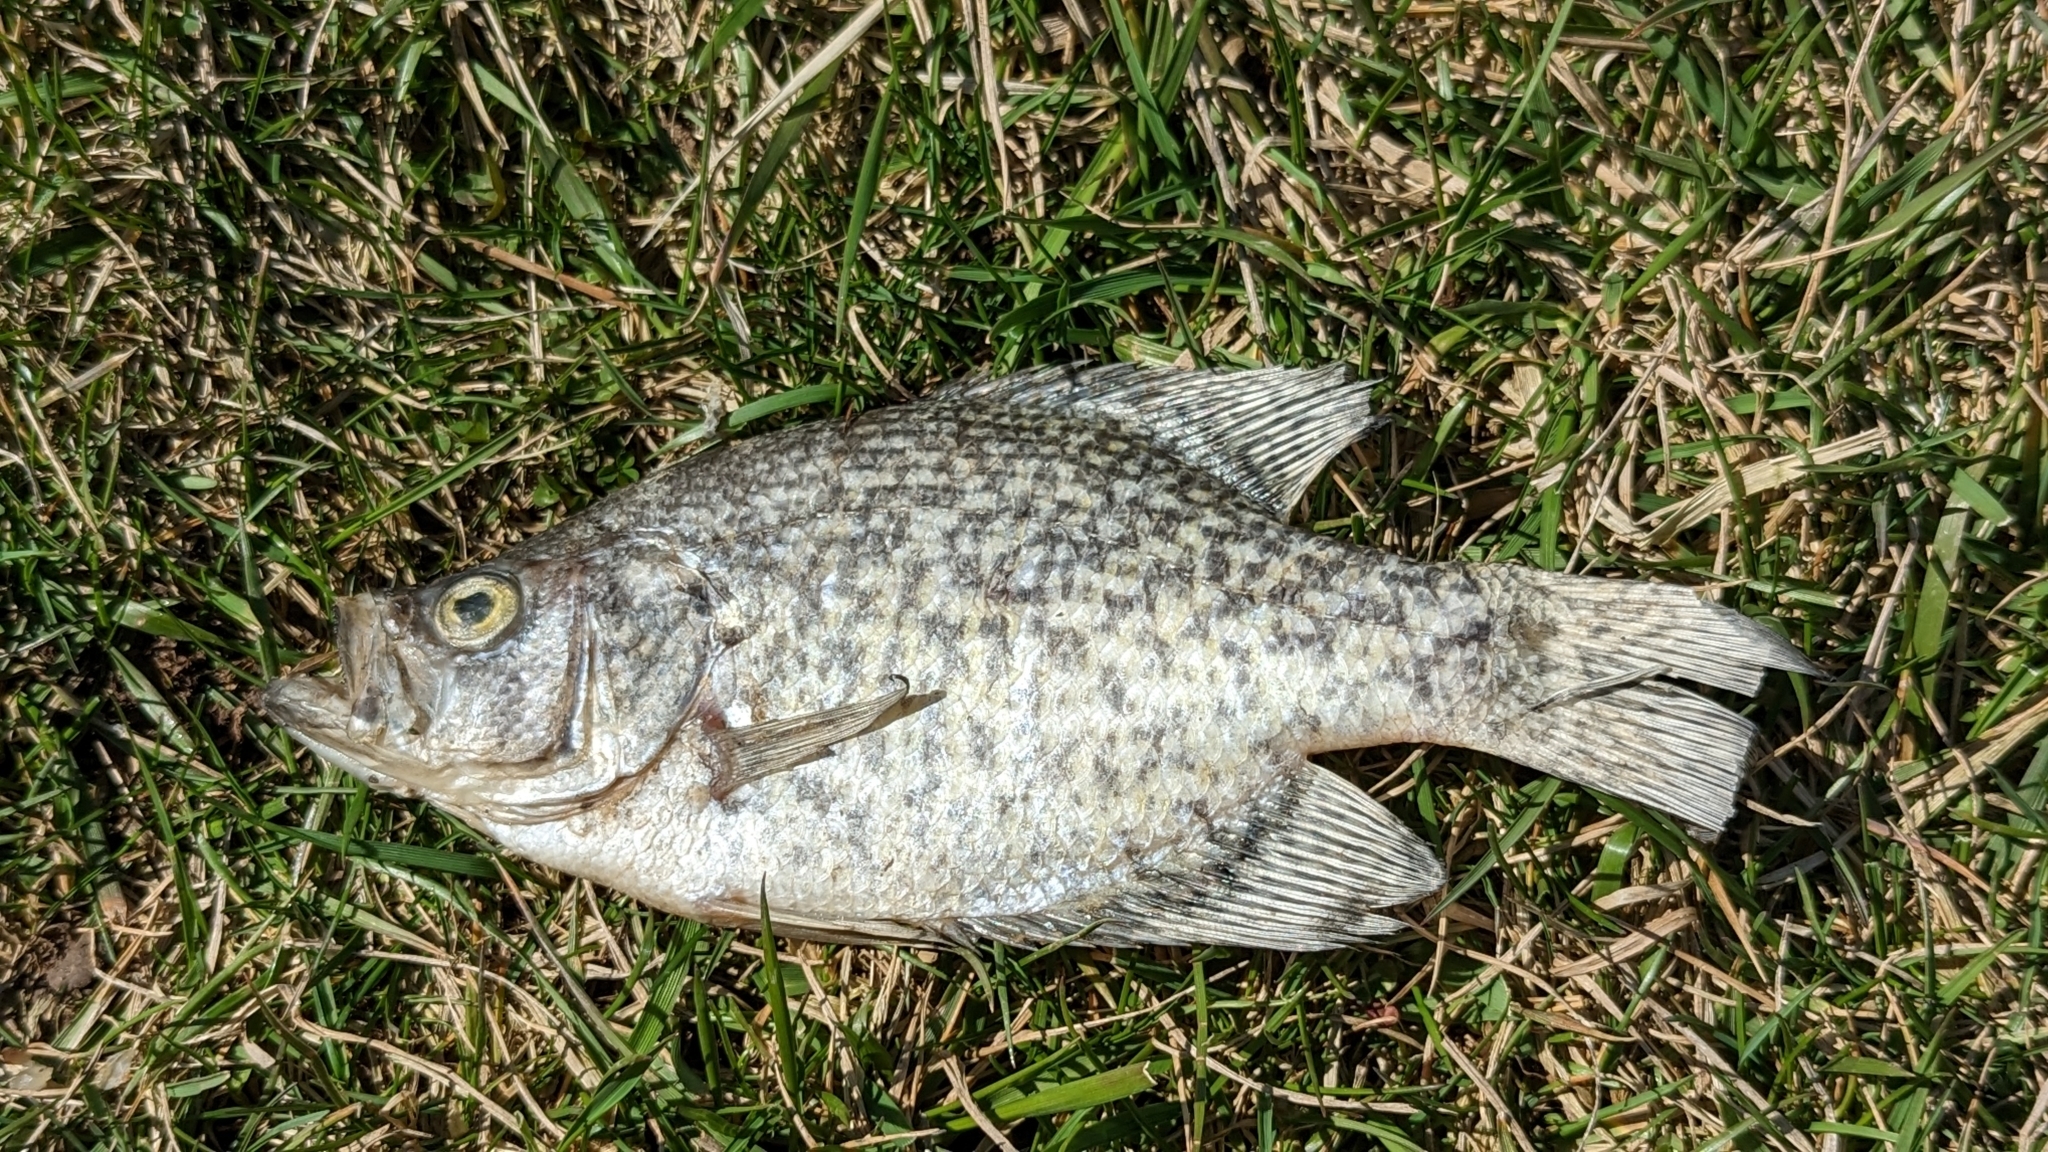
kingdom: Animalia
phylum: Chordata
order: Perciformes
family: Centrarchidae
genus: Pomoxis
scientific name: Pomoxis nigromaculatus
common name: Black crappie
